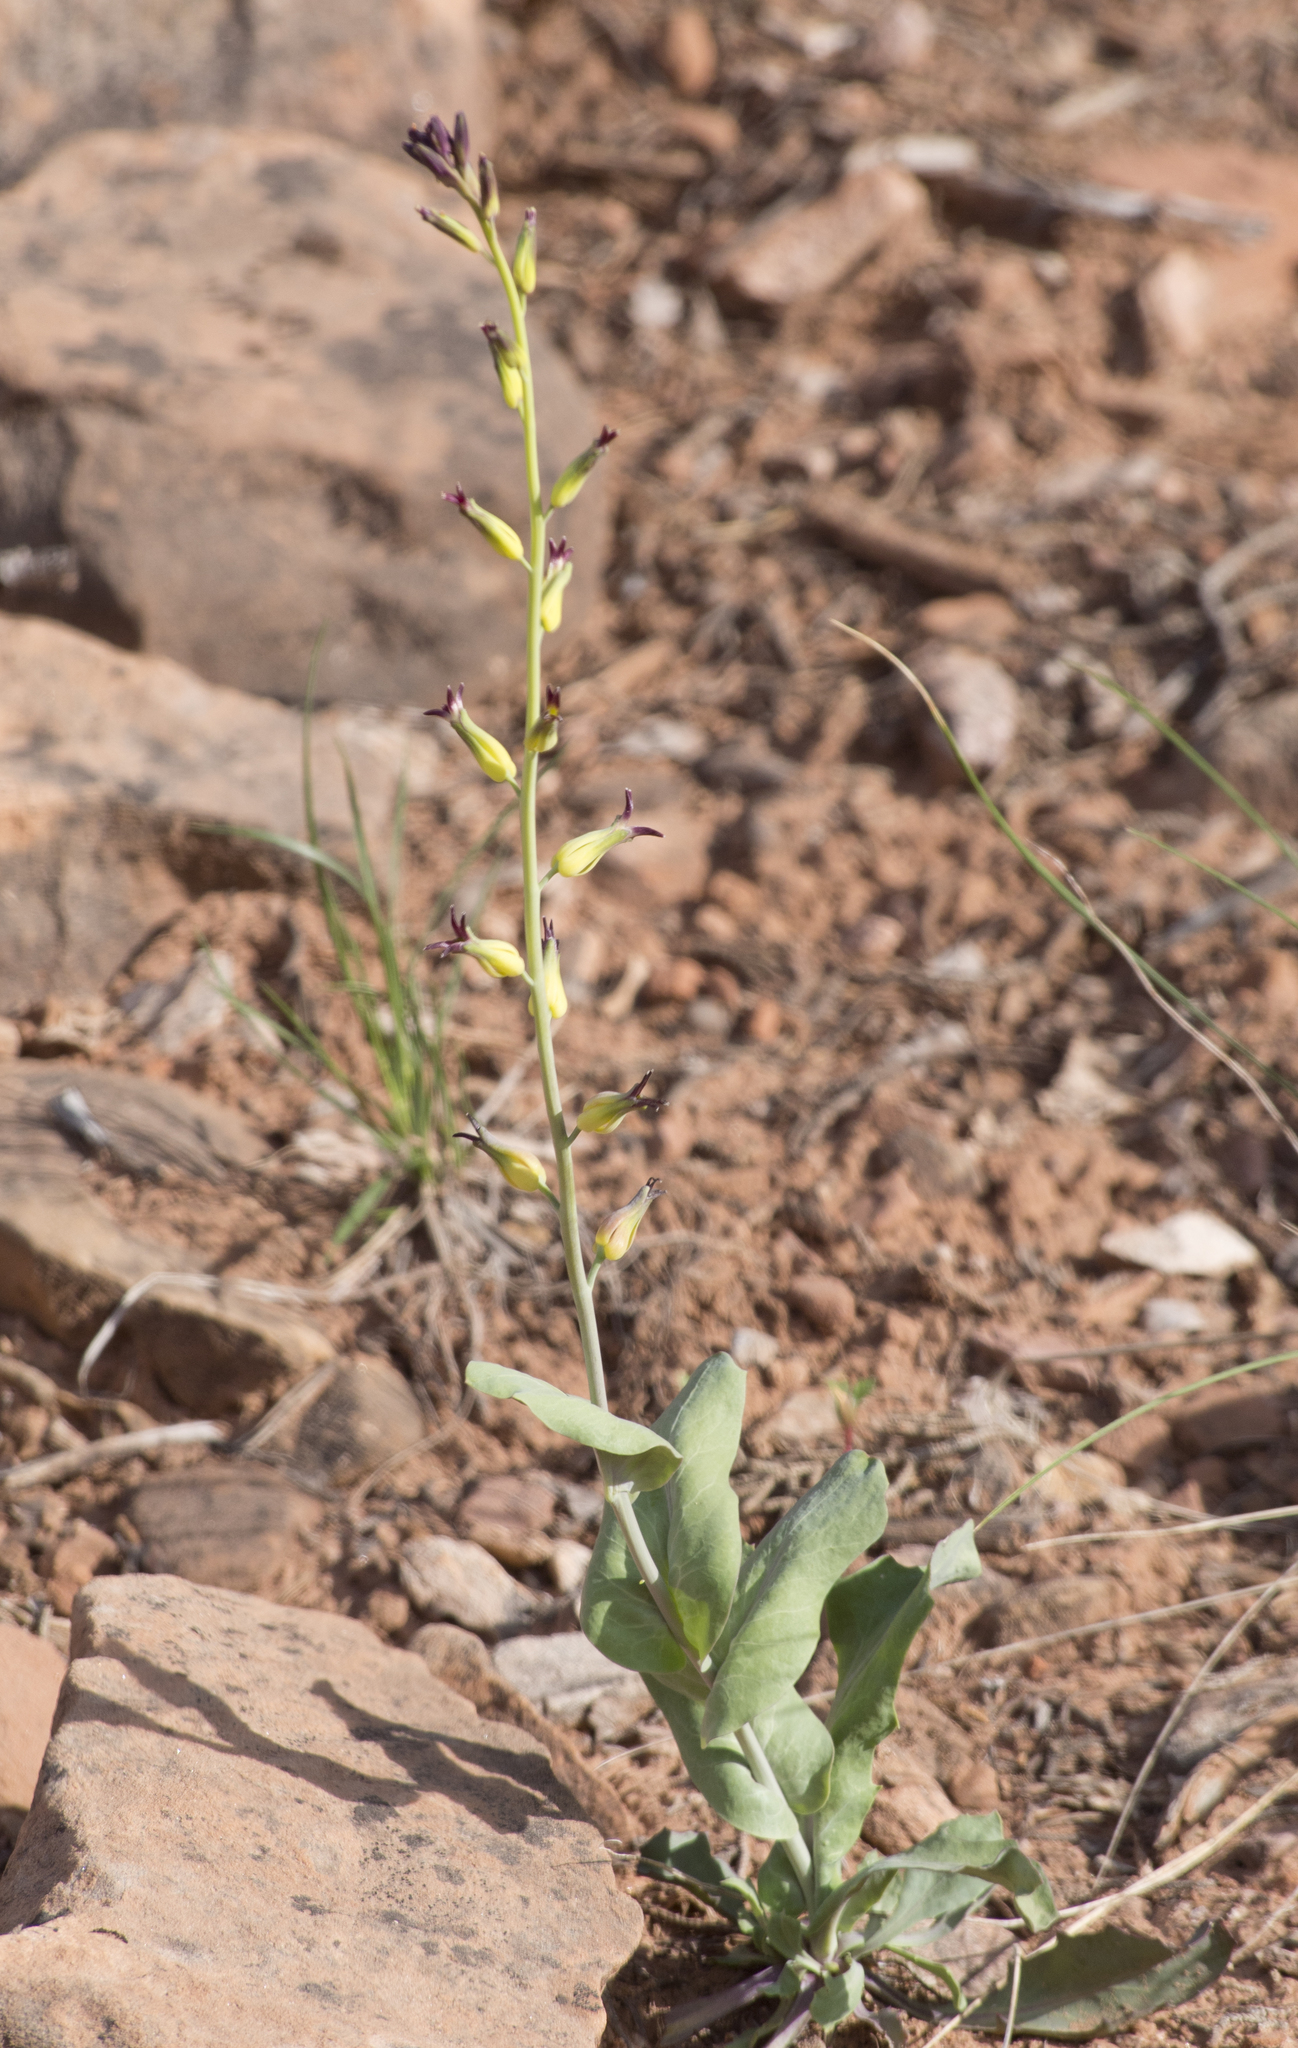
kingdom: Plantae
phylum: Tracheophyta
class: Magnoliopsida
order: Brassicales
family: Brassicaceae
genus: Streptanthus
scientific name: Streptanthus cordatus
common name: Heart-leaf jewel-flower
